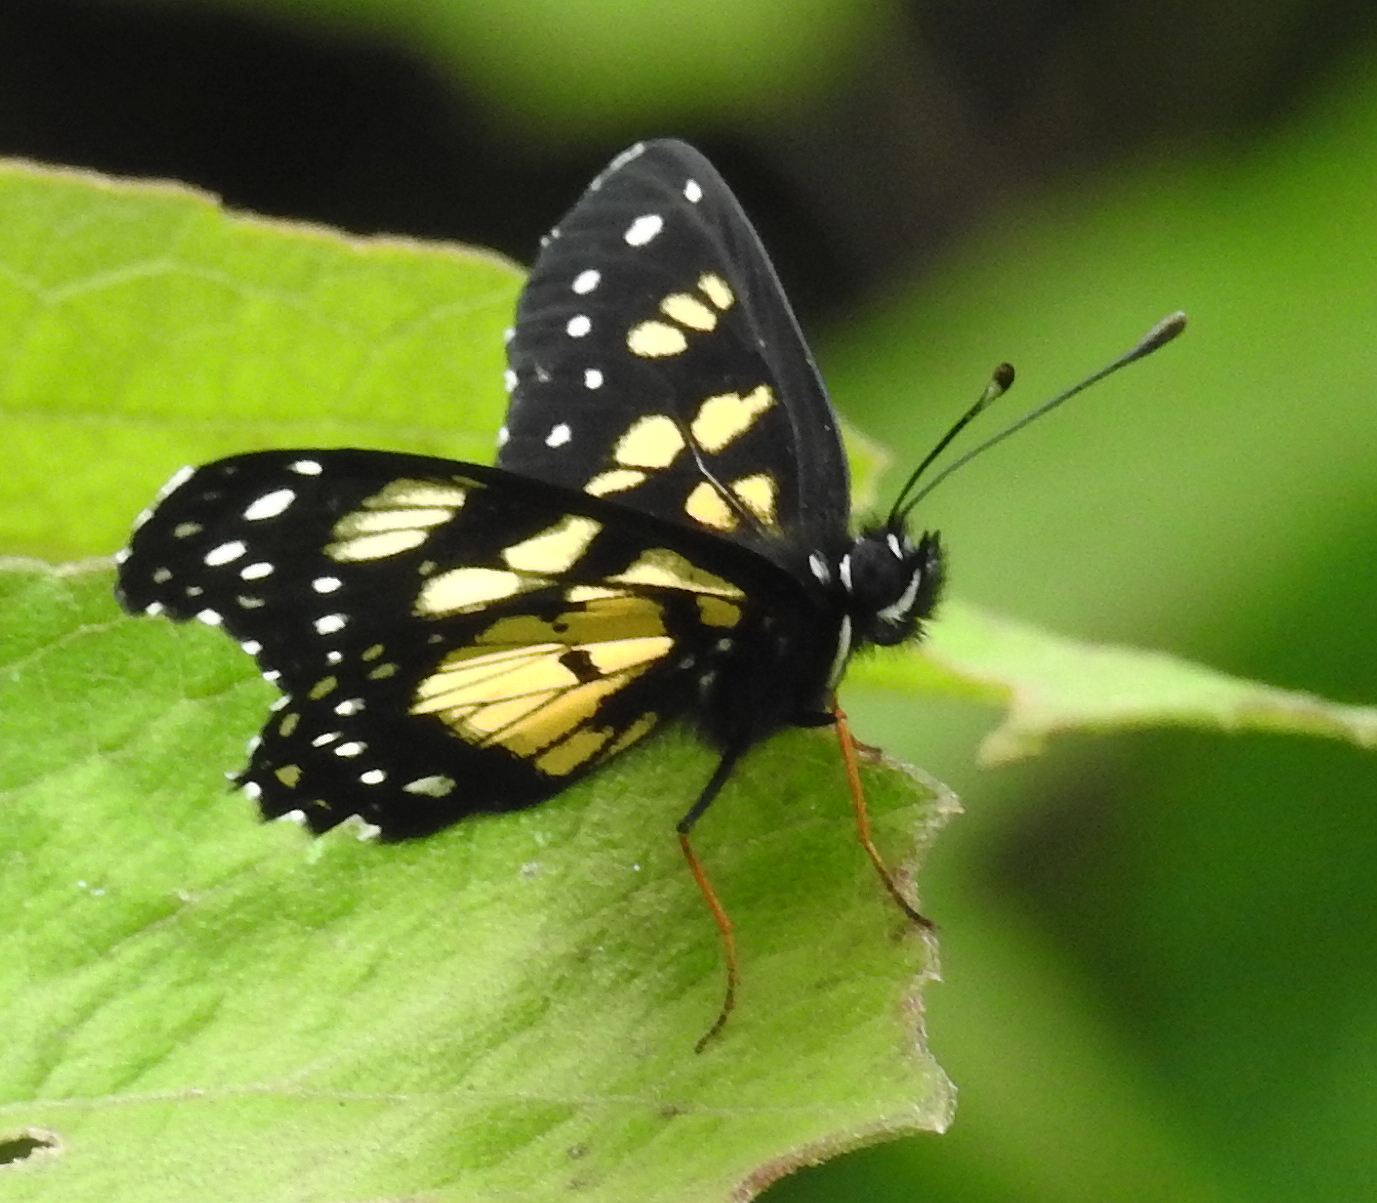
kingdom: Animalia
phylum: Arthropoda
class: Insecta
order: Lepidoptera
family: Nymphalidae
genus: Chlosyne
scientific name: Chlosyne narva
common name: Narva checkerspot
